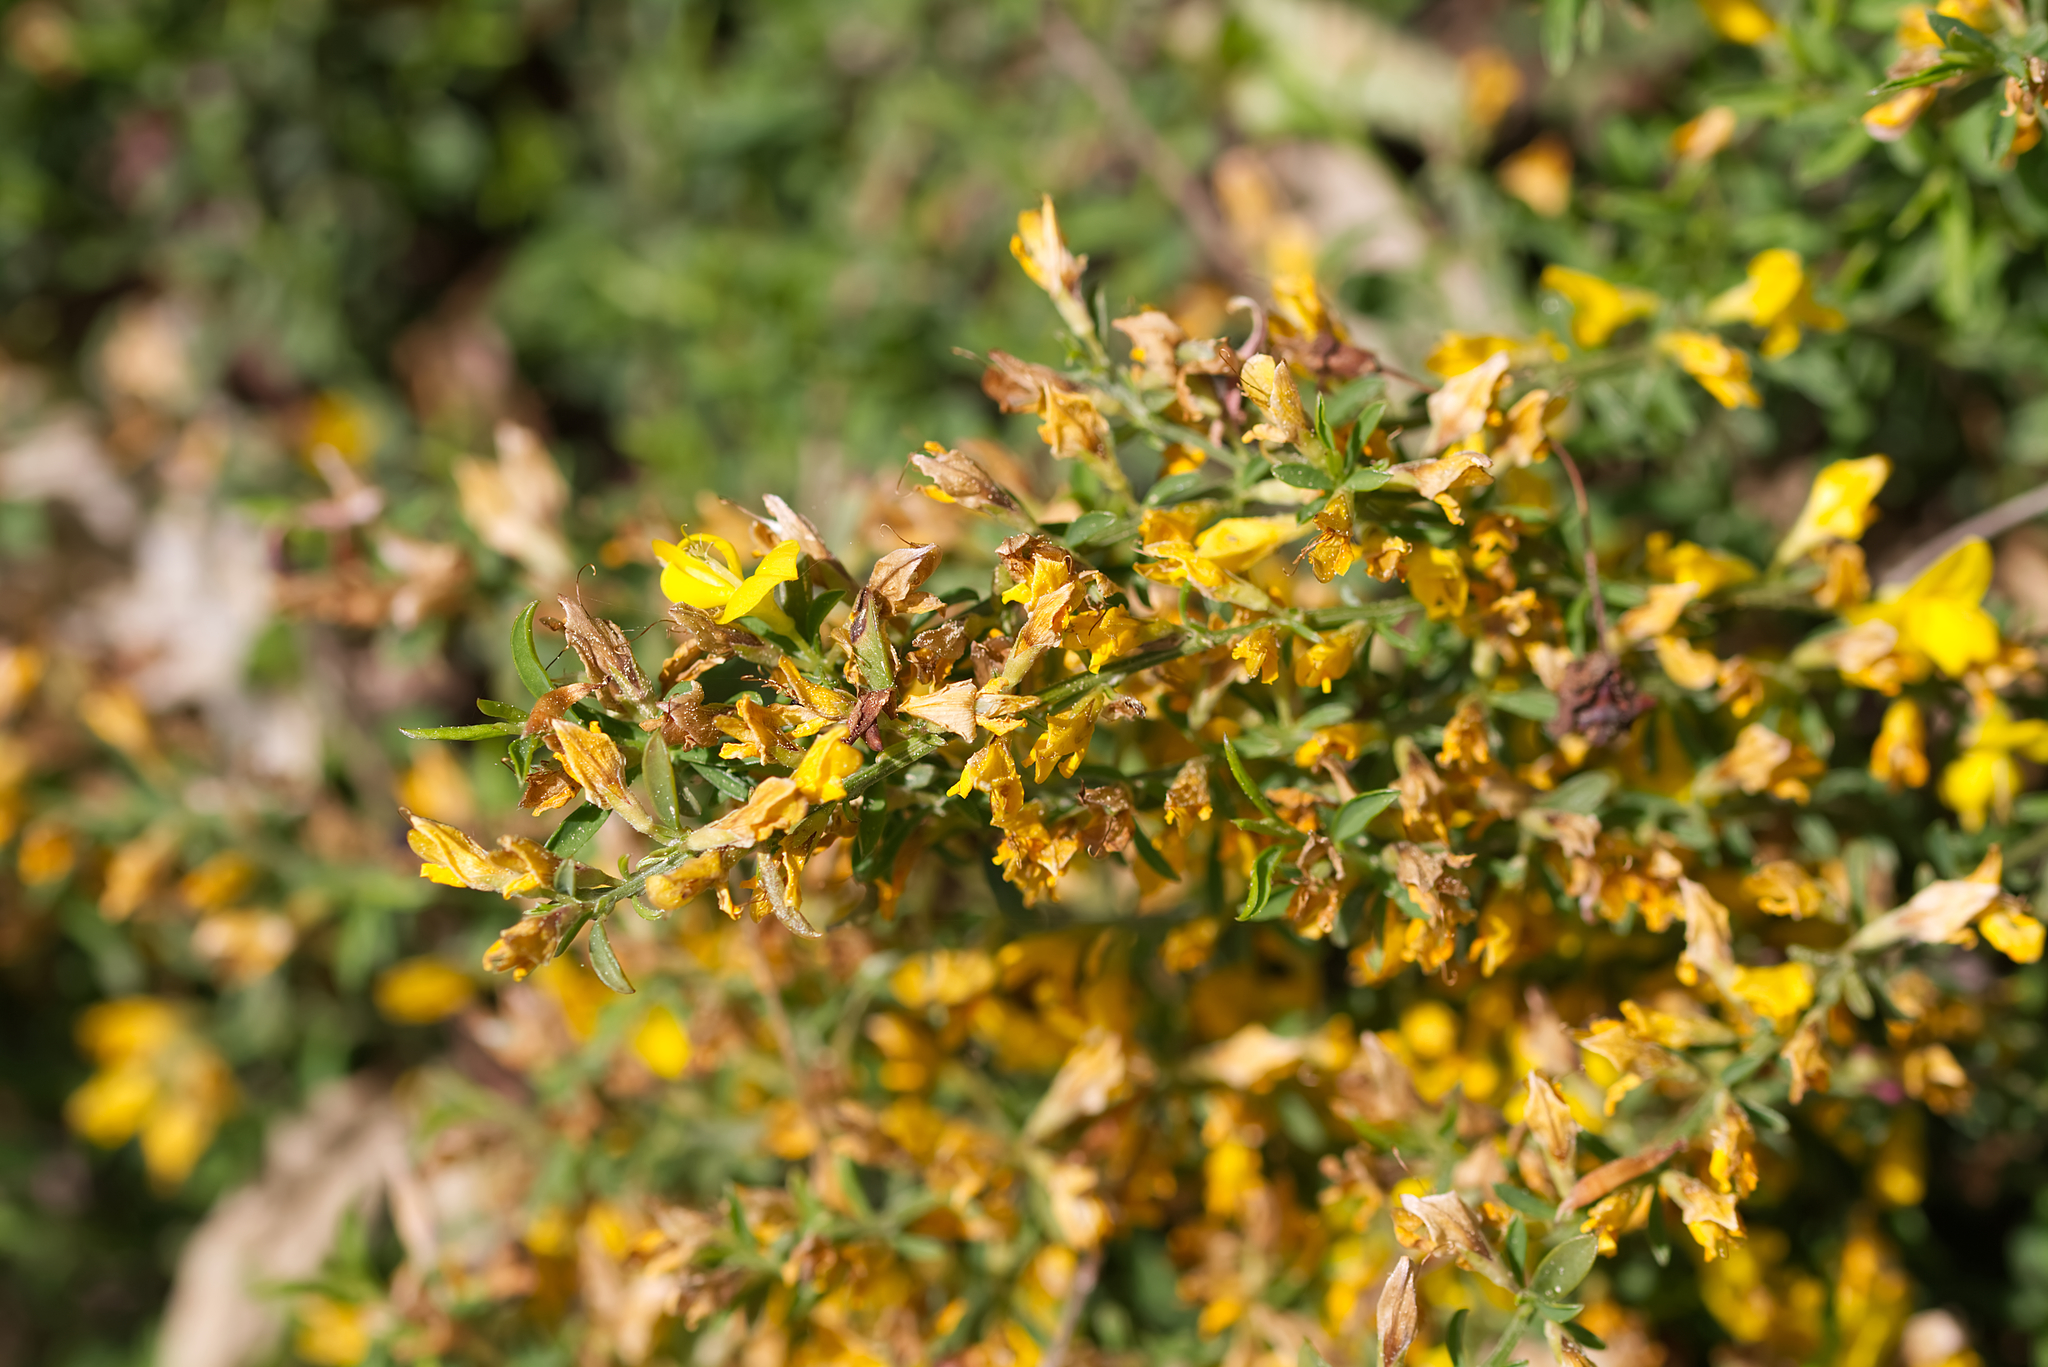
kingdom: Plantae
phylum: Tracheophyta
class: Magnoliopsida
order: Fabales
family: Fabaceae
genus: Genista
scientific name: Genista pilosa
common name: Hairy greenweed
